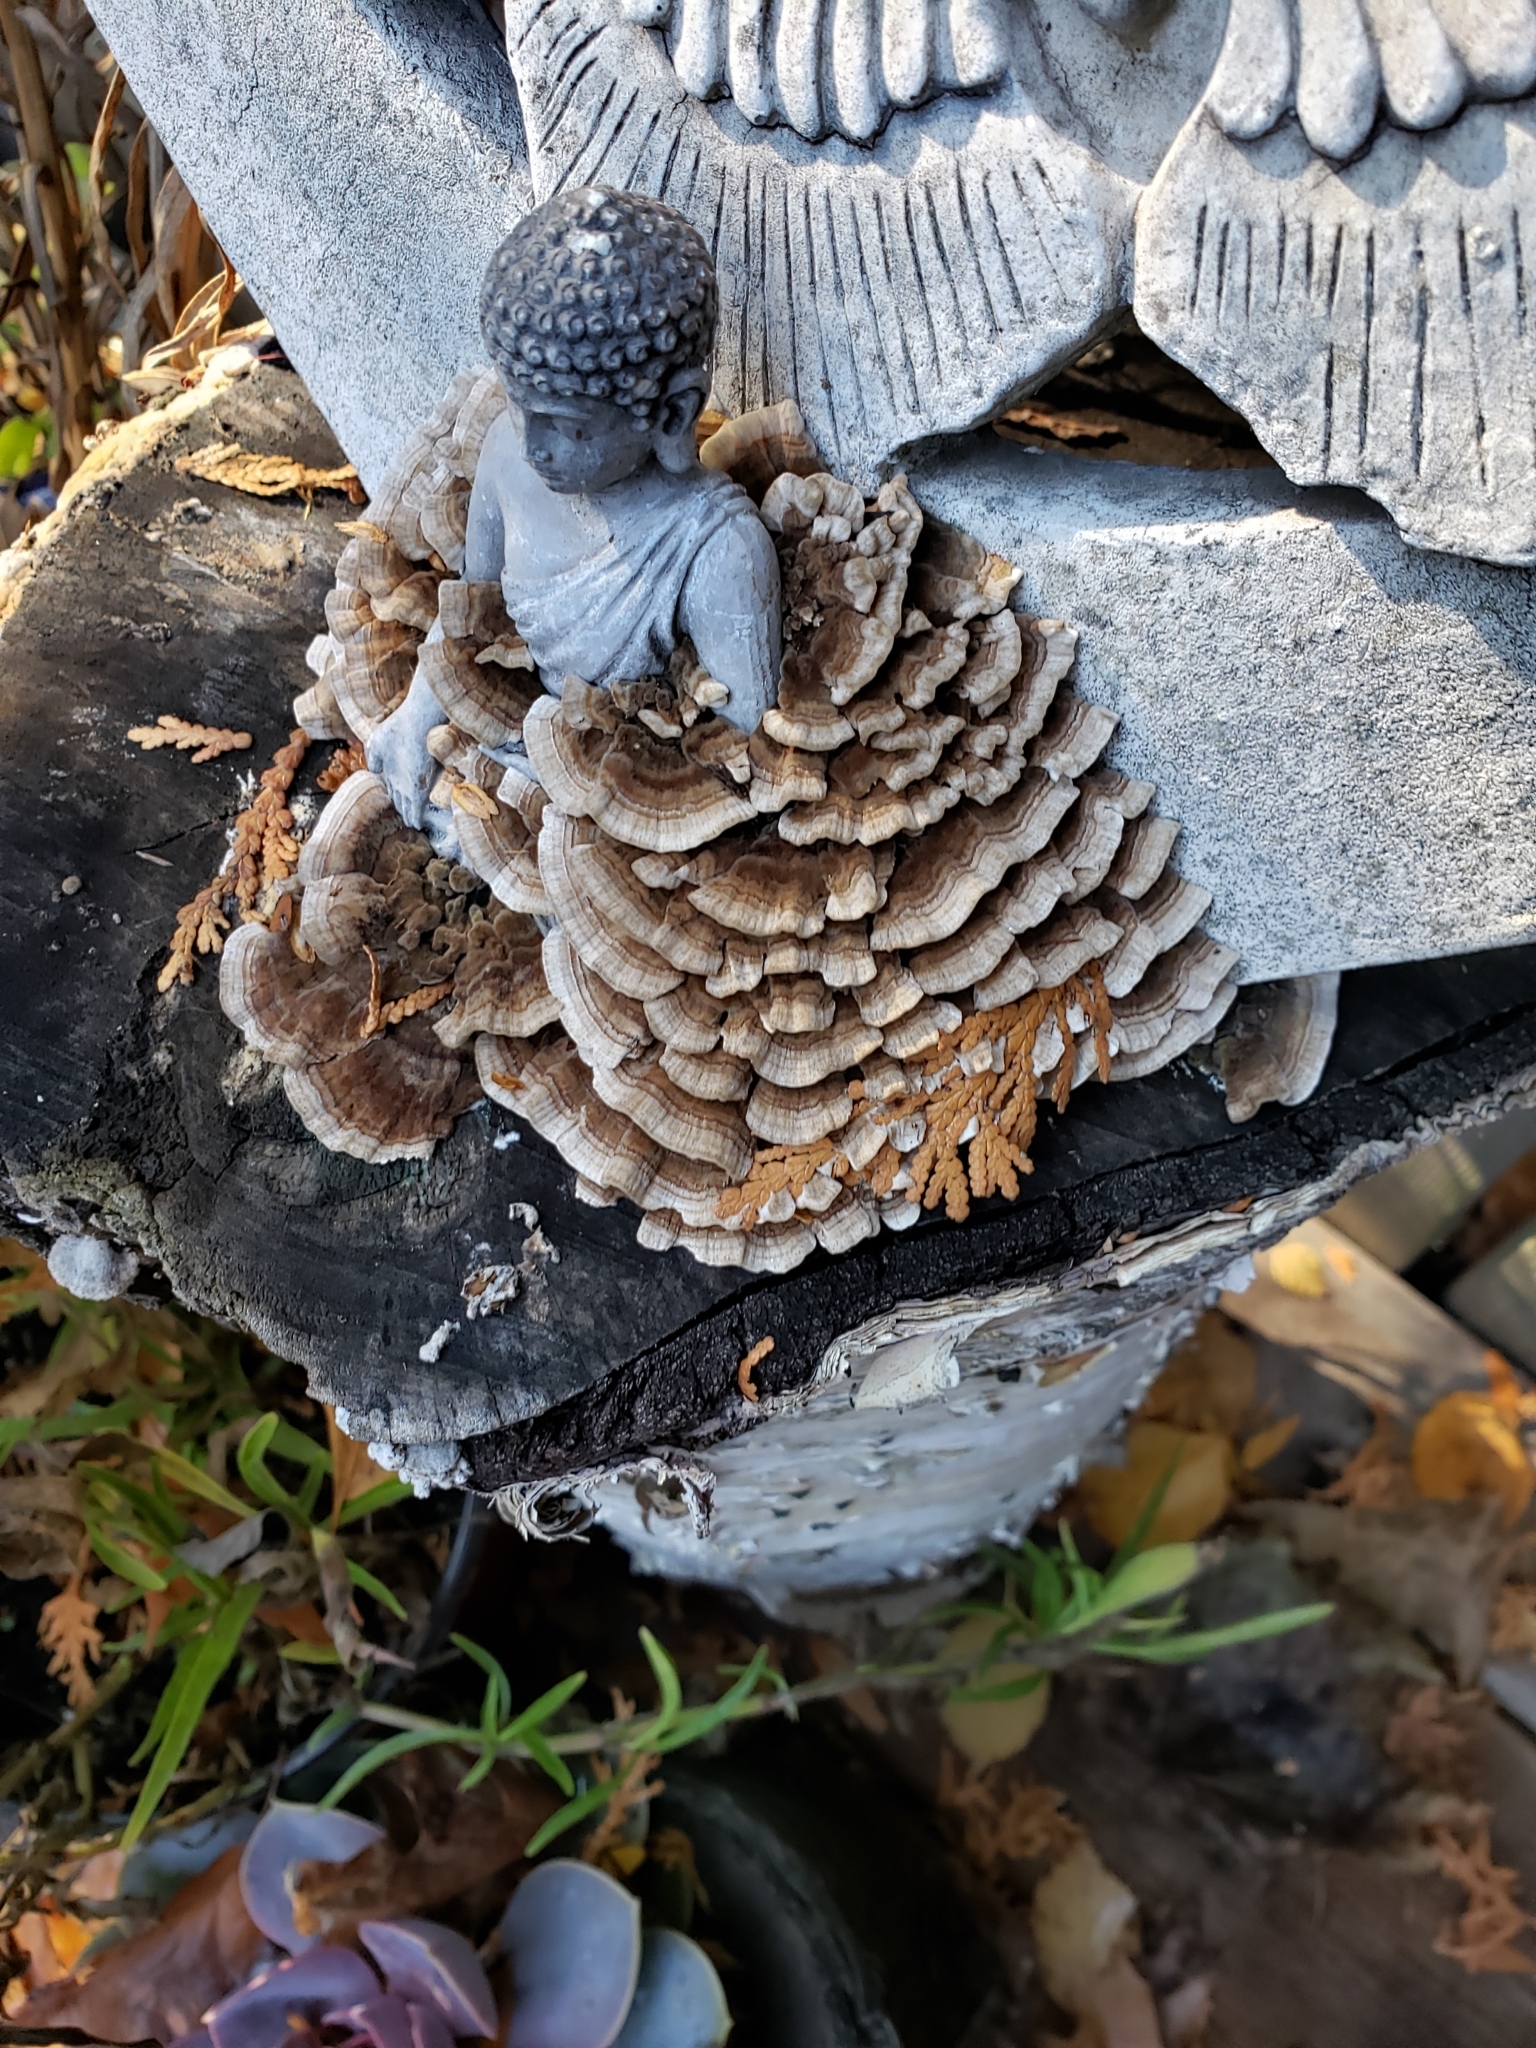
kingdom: Fungi
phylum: Basidiomycota
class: Agaricomycetes
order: Polyporales
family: Polyporaceae
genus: Trametes
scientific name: Trametes versicolor
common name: Turkeytail
